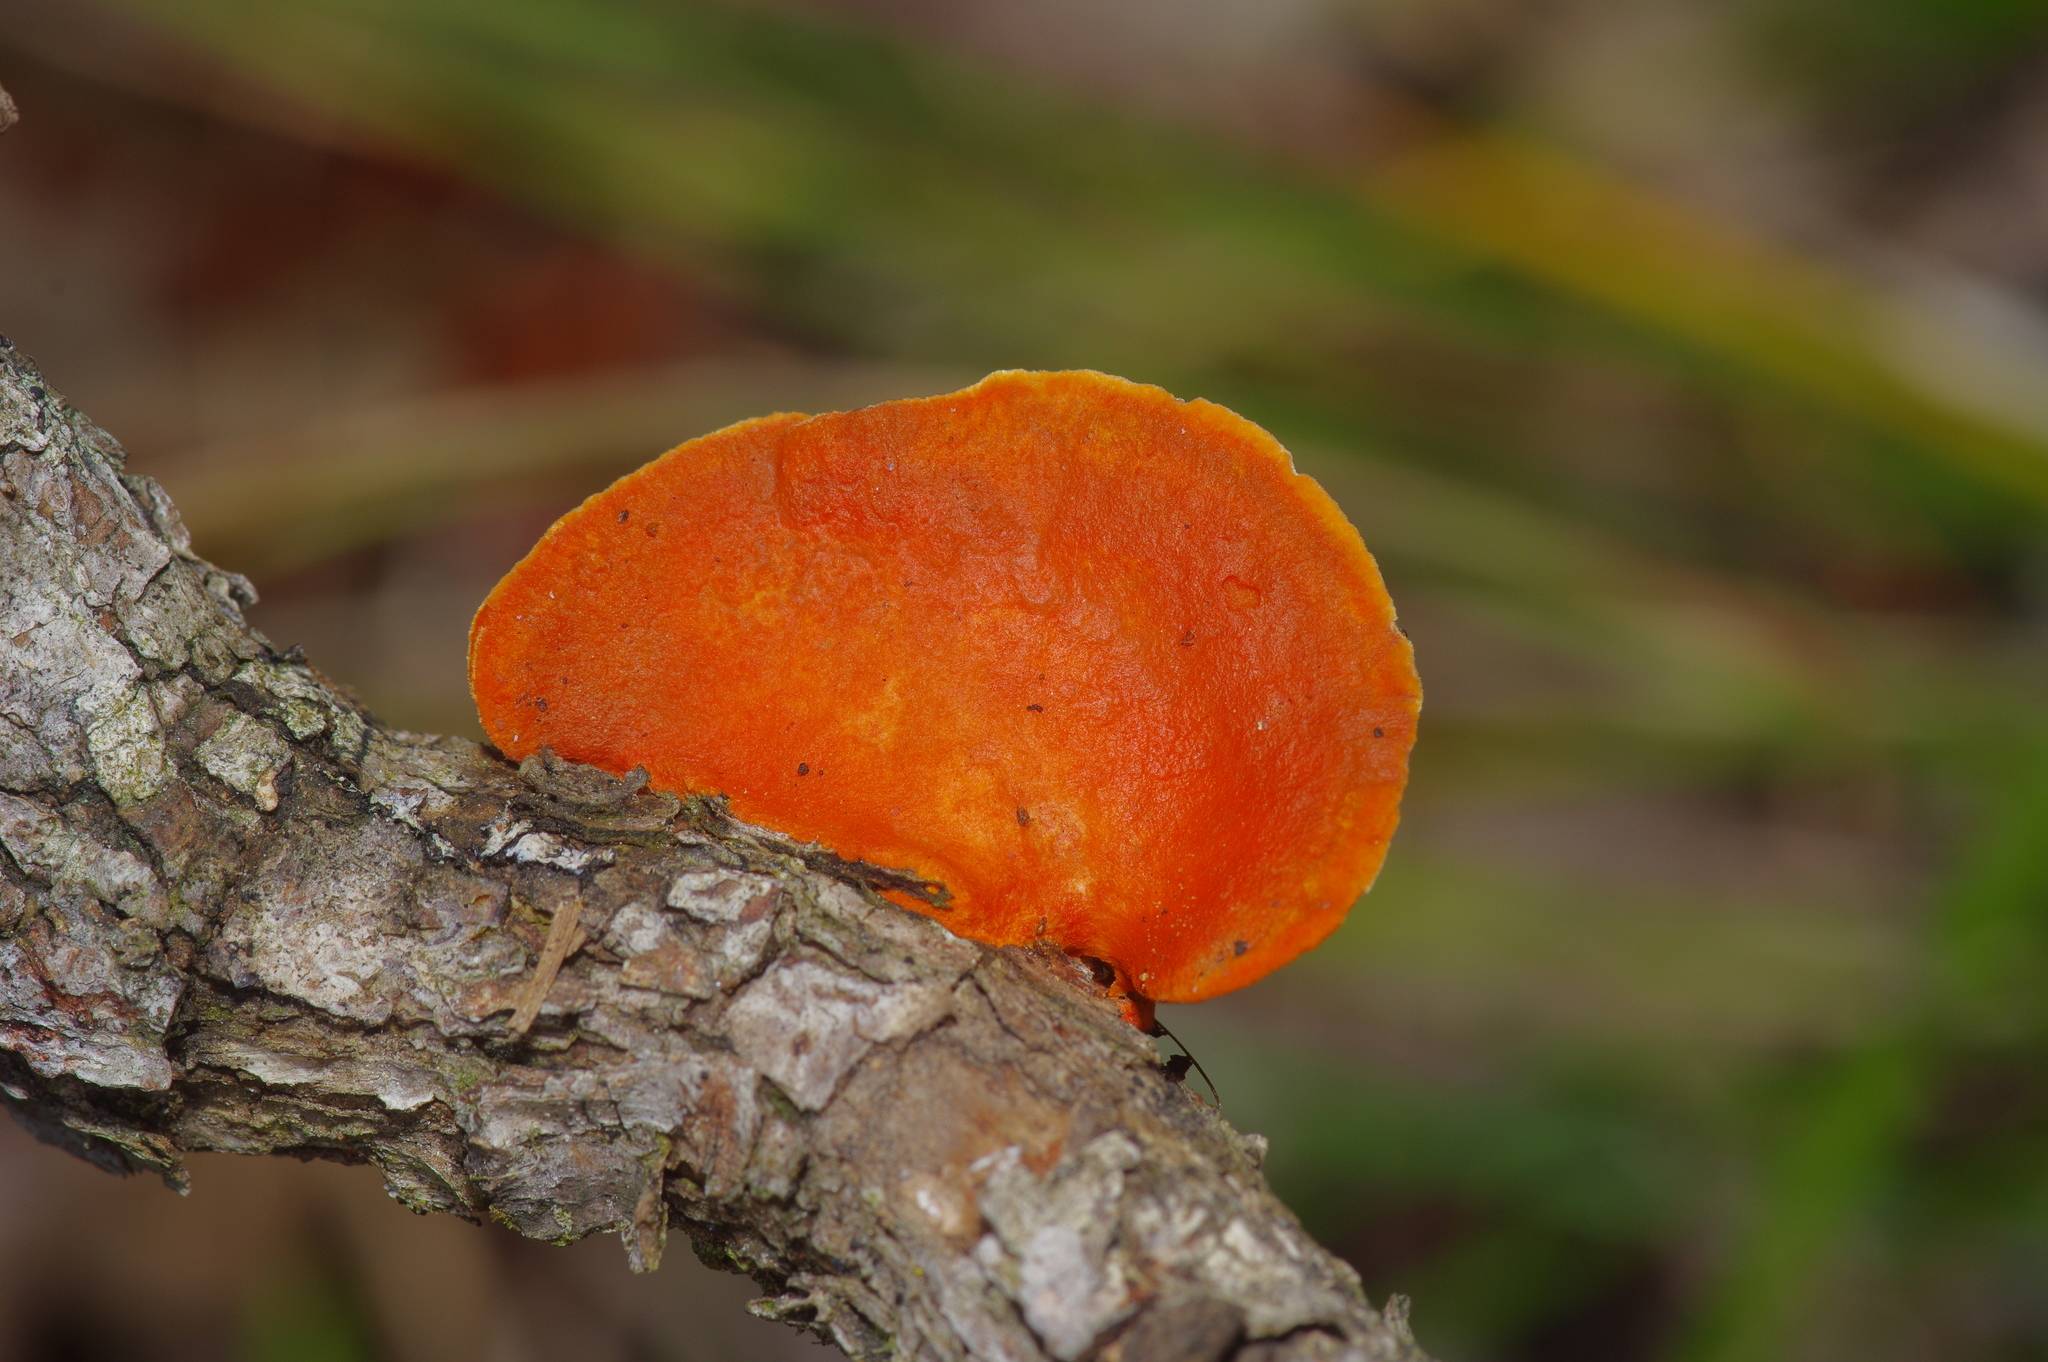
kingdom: Fungi
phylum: Basidiomycota
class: Agaricomycetes
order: Polyporales
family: Polyporaceae
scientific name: Polyporaceae
